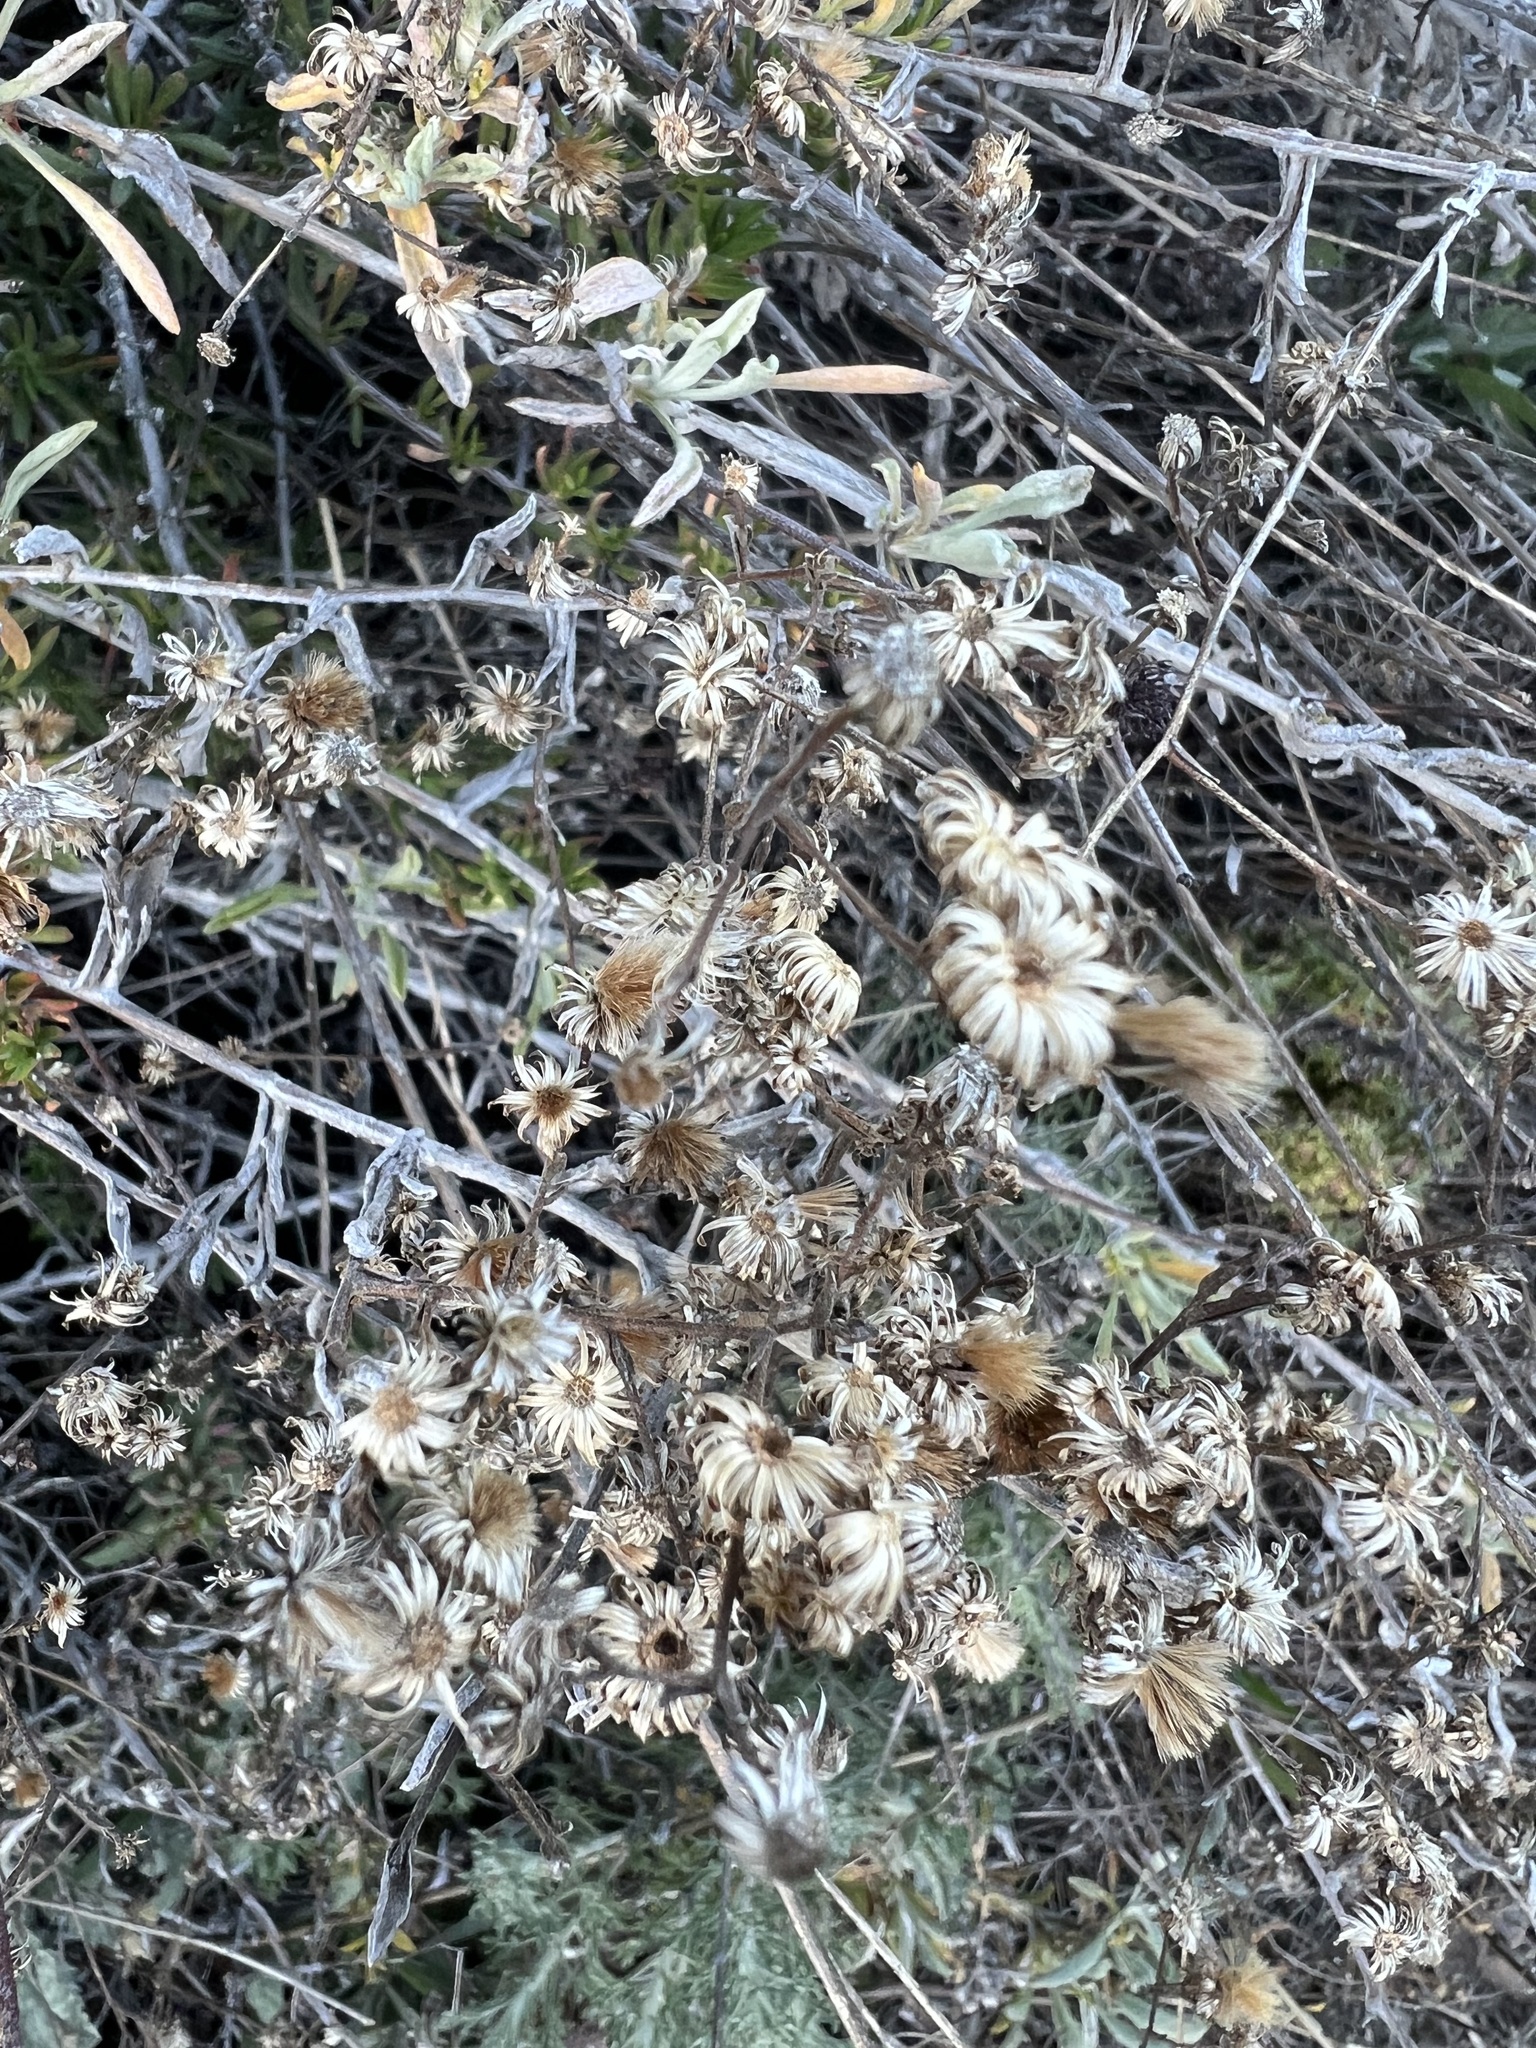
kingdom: Plantae
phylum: Tracheophyta
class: Magnoliopsida
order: Asterales
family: Asteraceae
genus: Corethrogyne
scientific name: Corethrogyne filaginifolia
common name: Sand-aster
